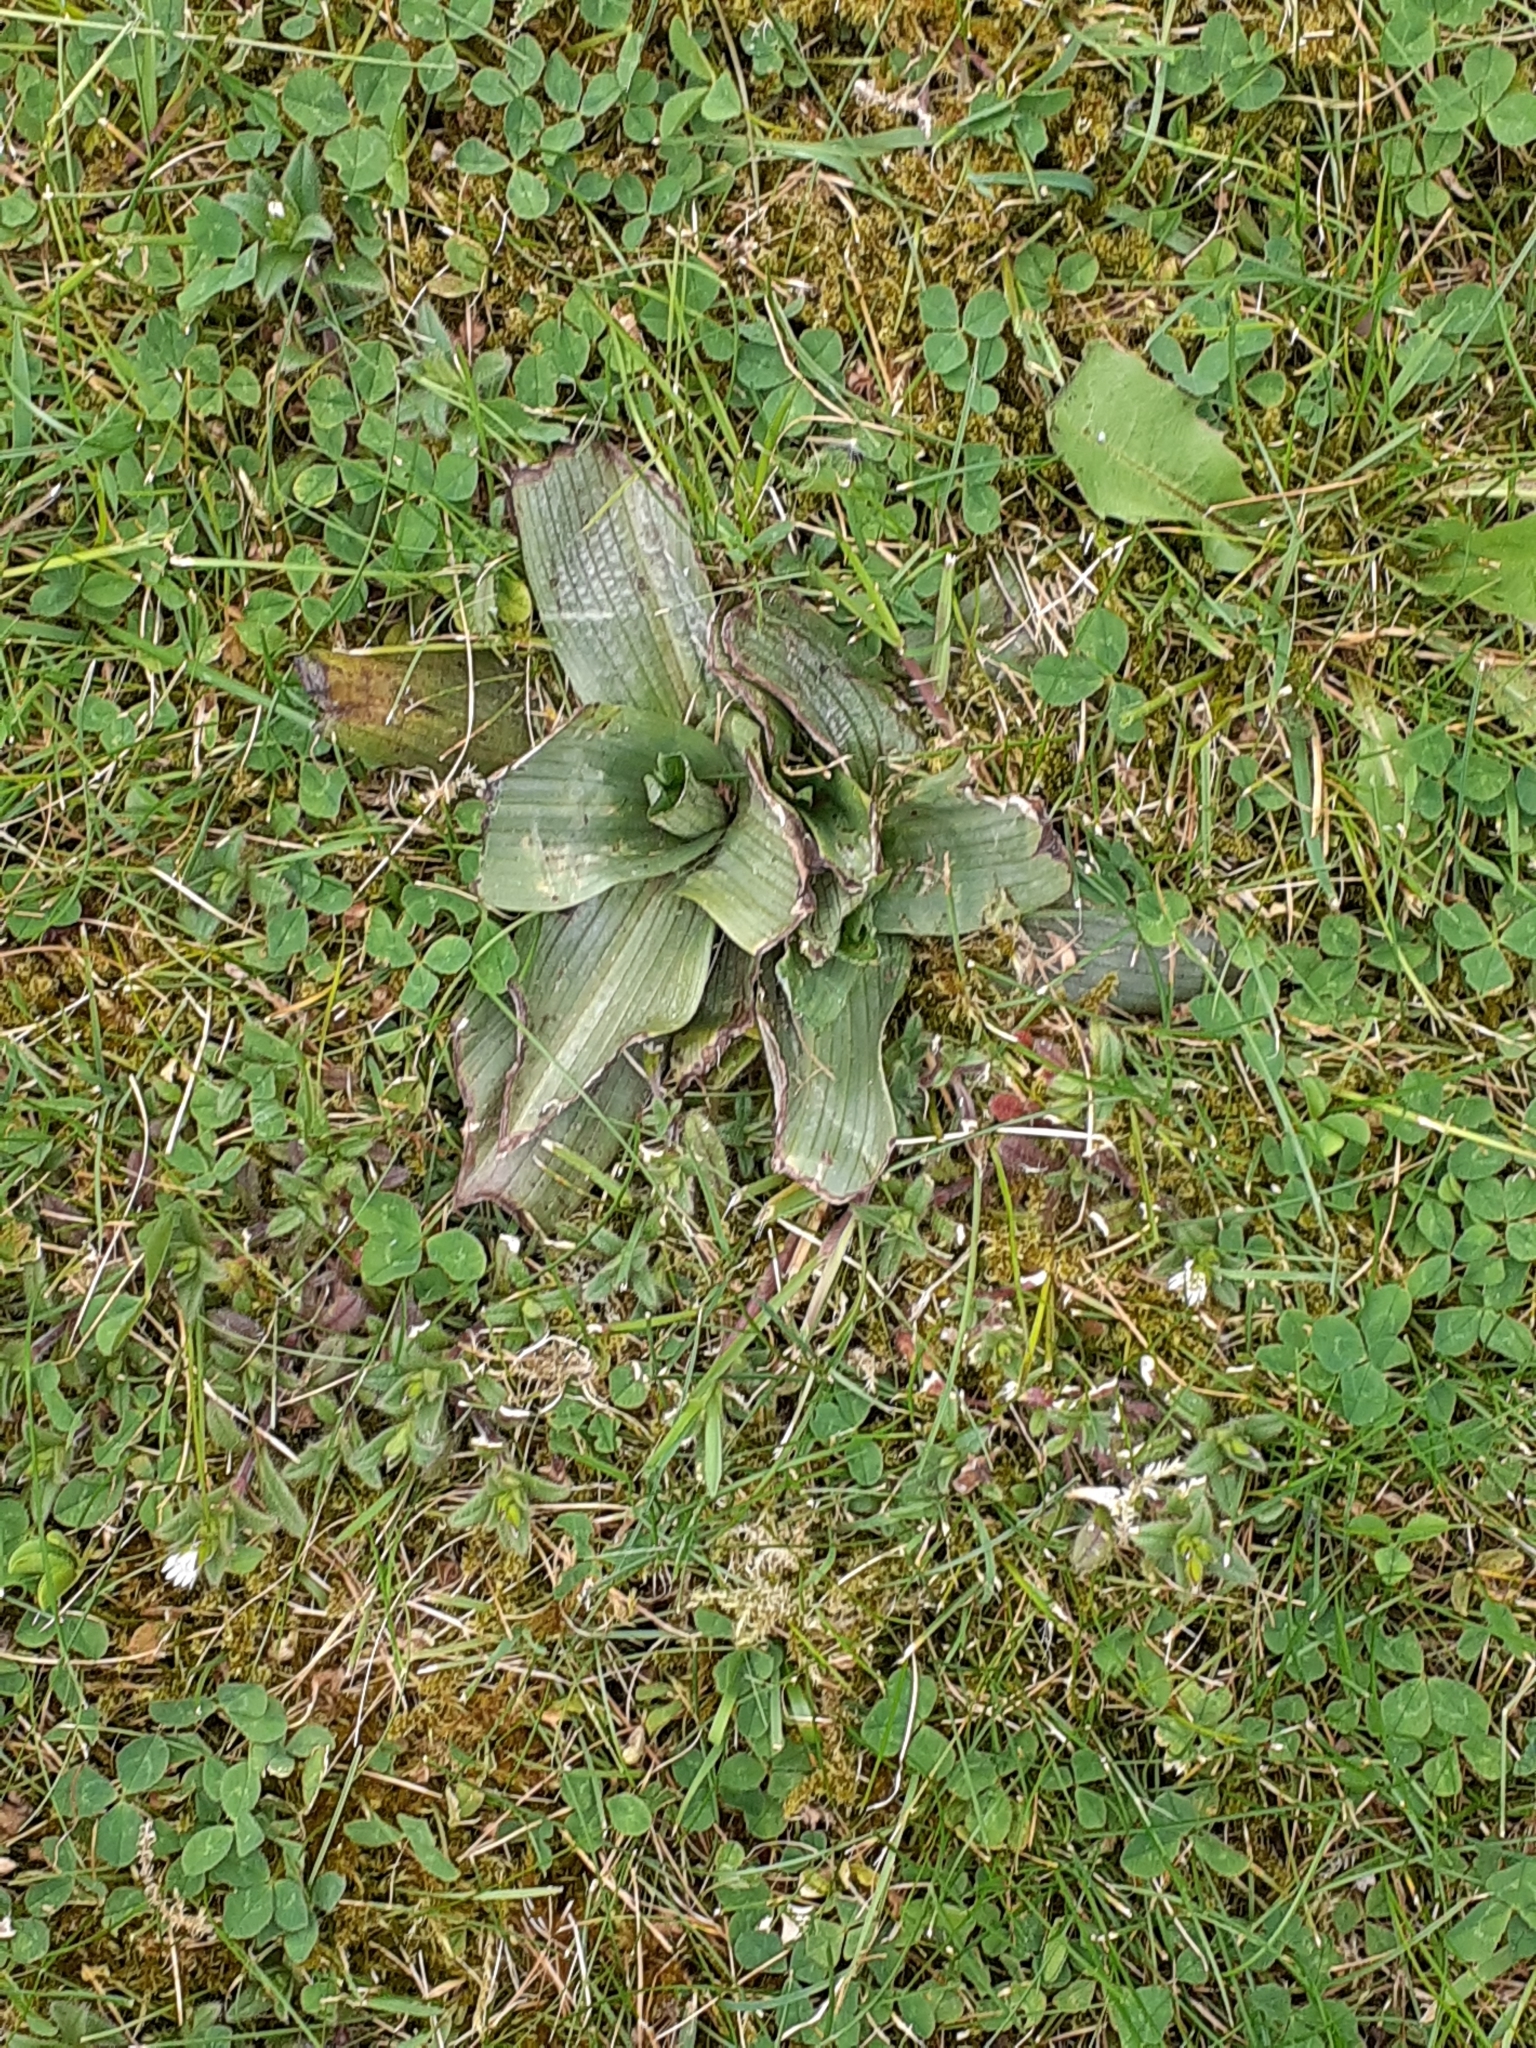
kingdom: Plantae
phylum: Tracheophyta
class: Liliopsida
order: Asparagales
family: Orchidaceae
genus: Ophrys
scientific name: Ophrys apifera
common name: Bee orchid
